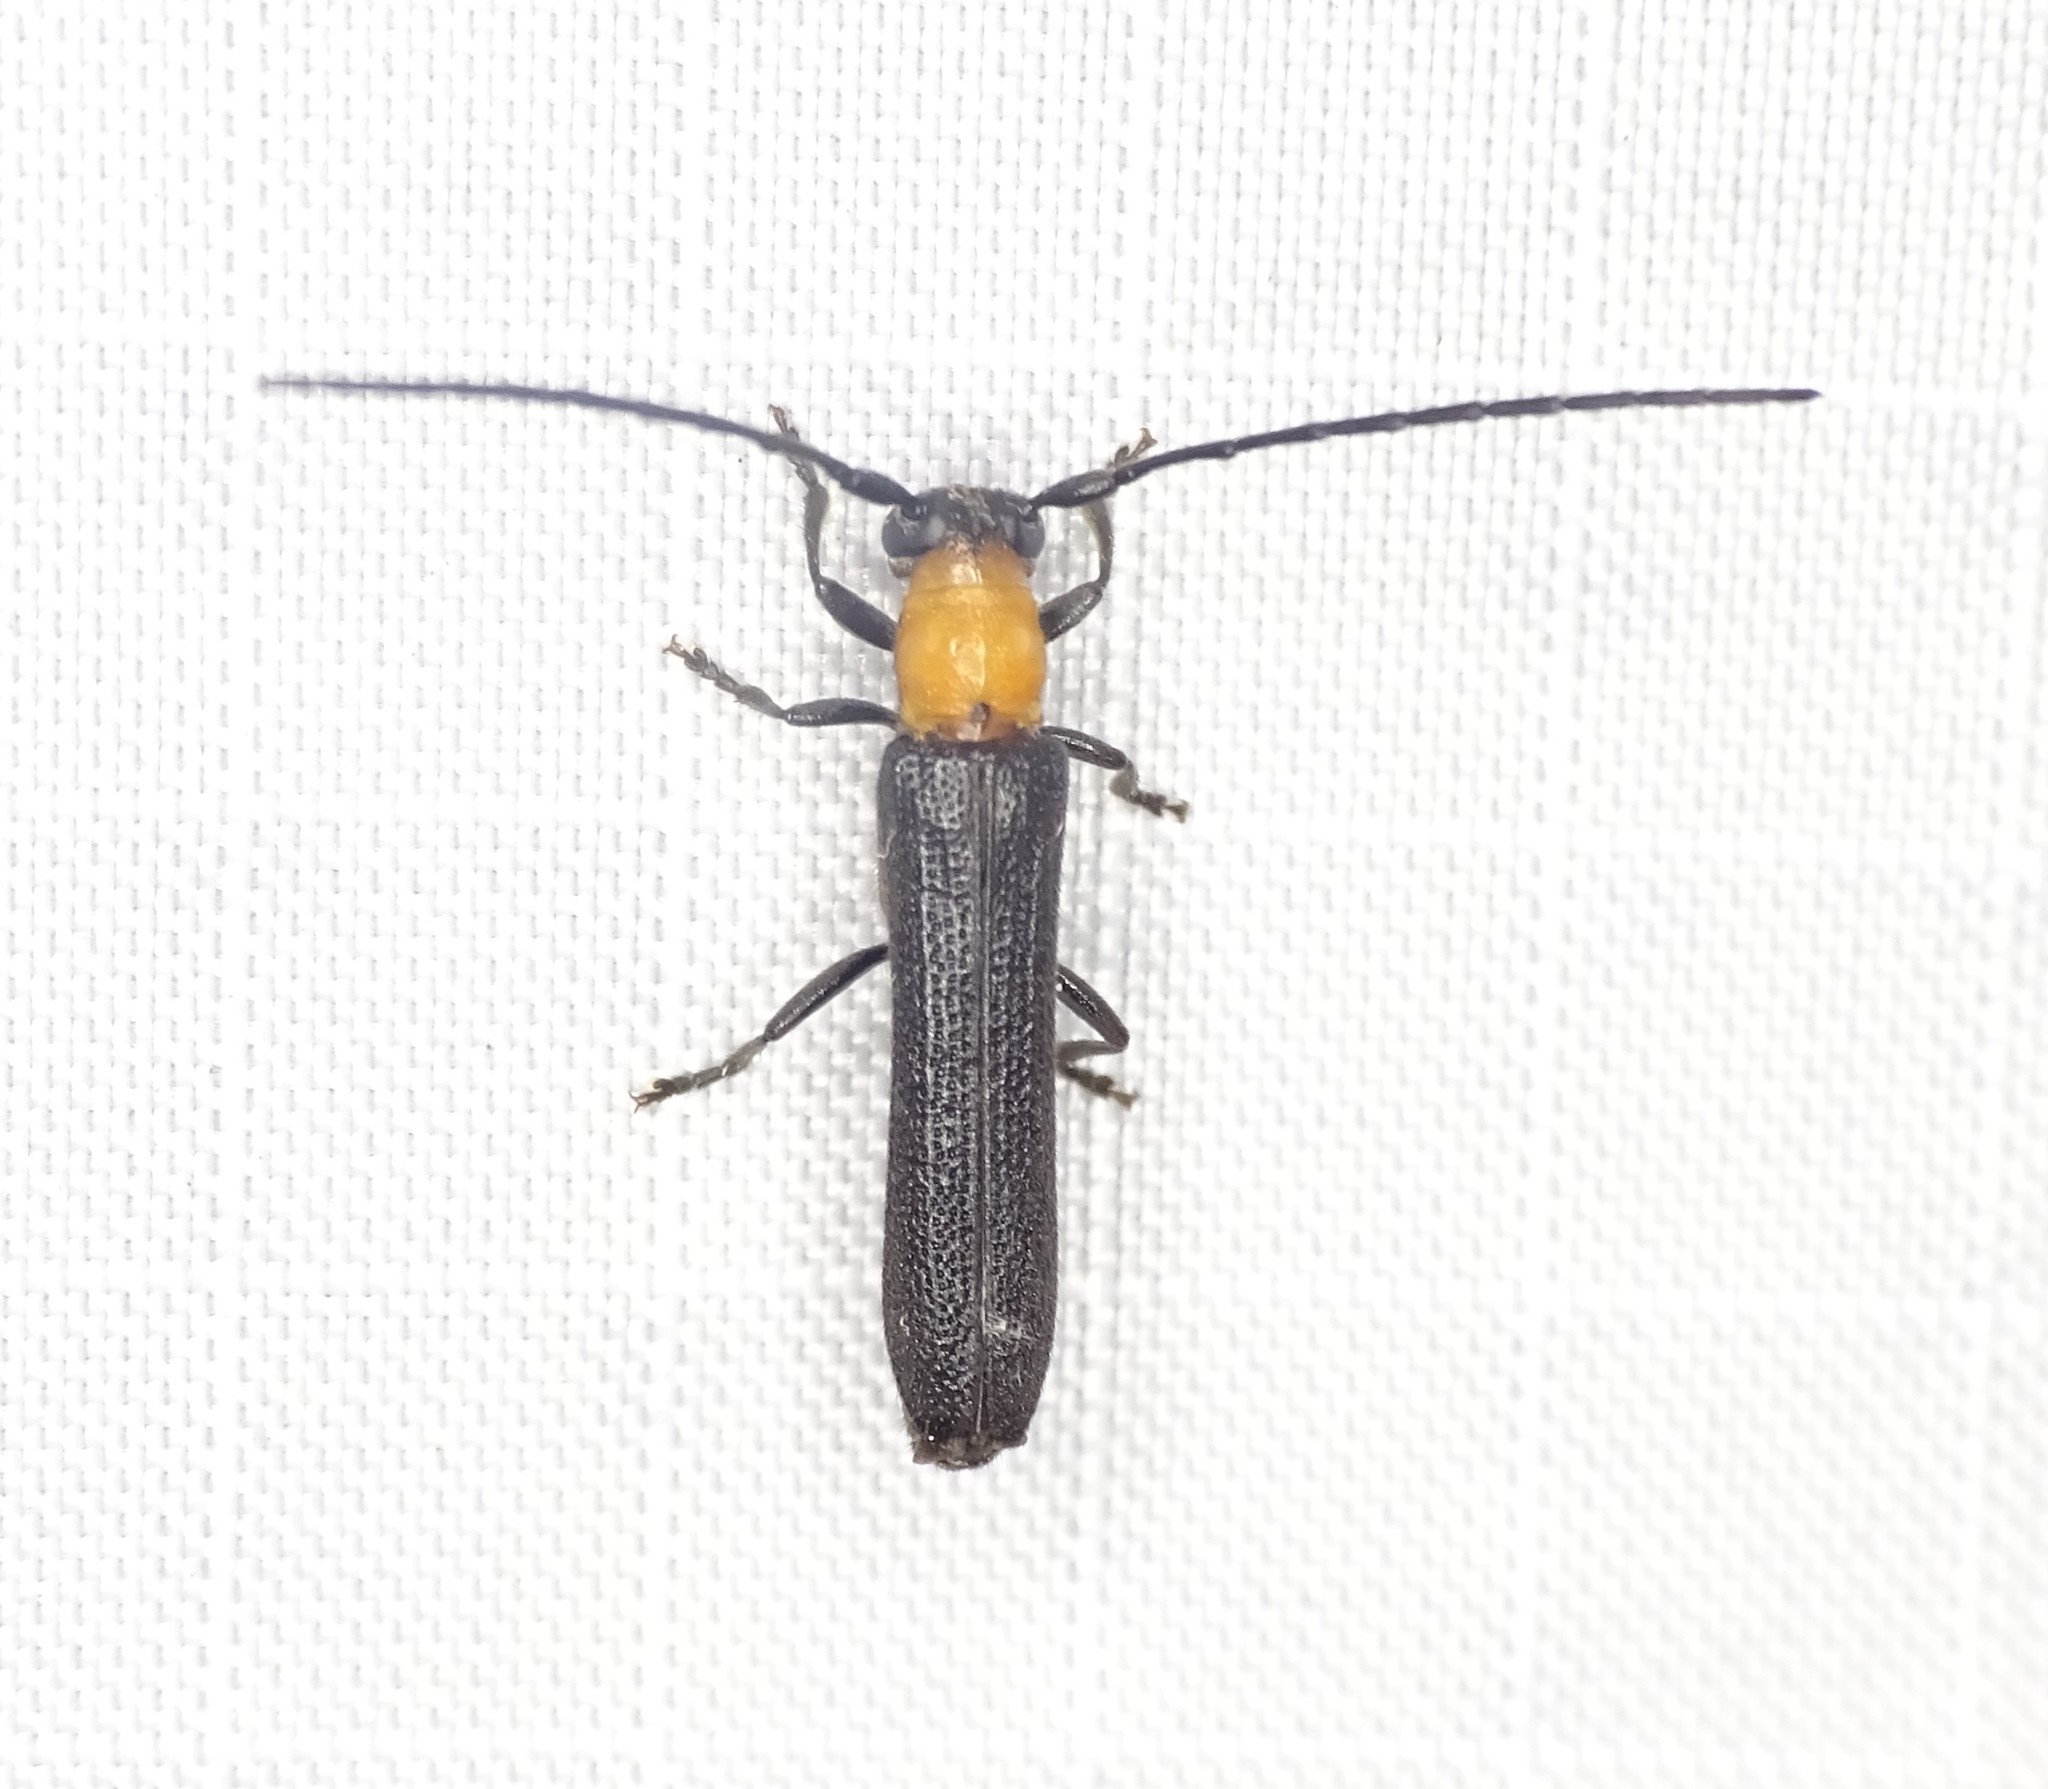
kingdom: Animalia
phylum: Arthropoda
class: Insecta
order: Coleoptera
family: Cerambycidae
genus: Oberea
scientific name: Oberea affinis
